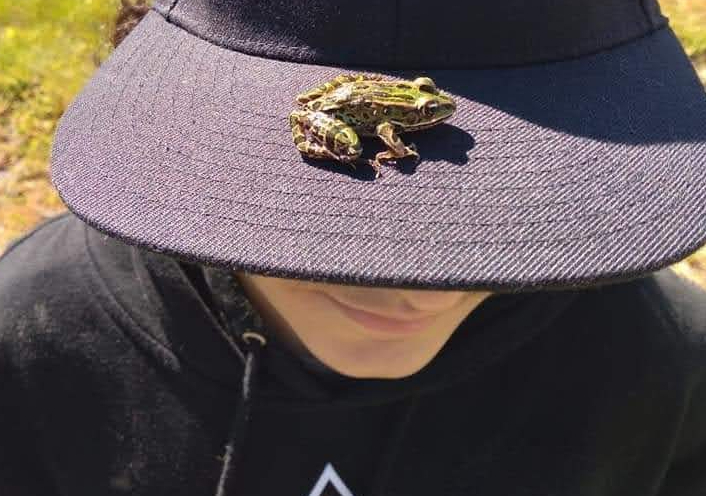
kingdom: Animalia
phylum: Chordata
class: Amphibia
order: Anura
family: Ranidae
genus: Lithobates
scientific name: Lithobates pipiens
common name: Northern leopard frog
